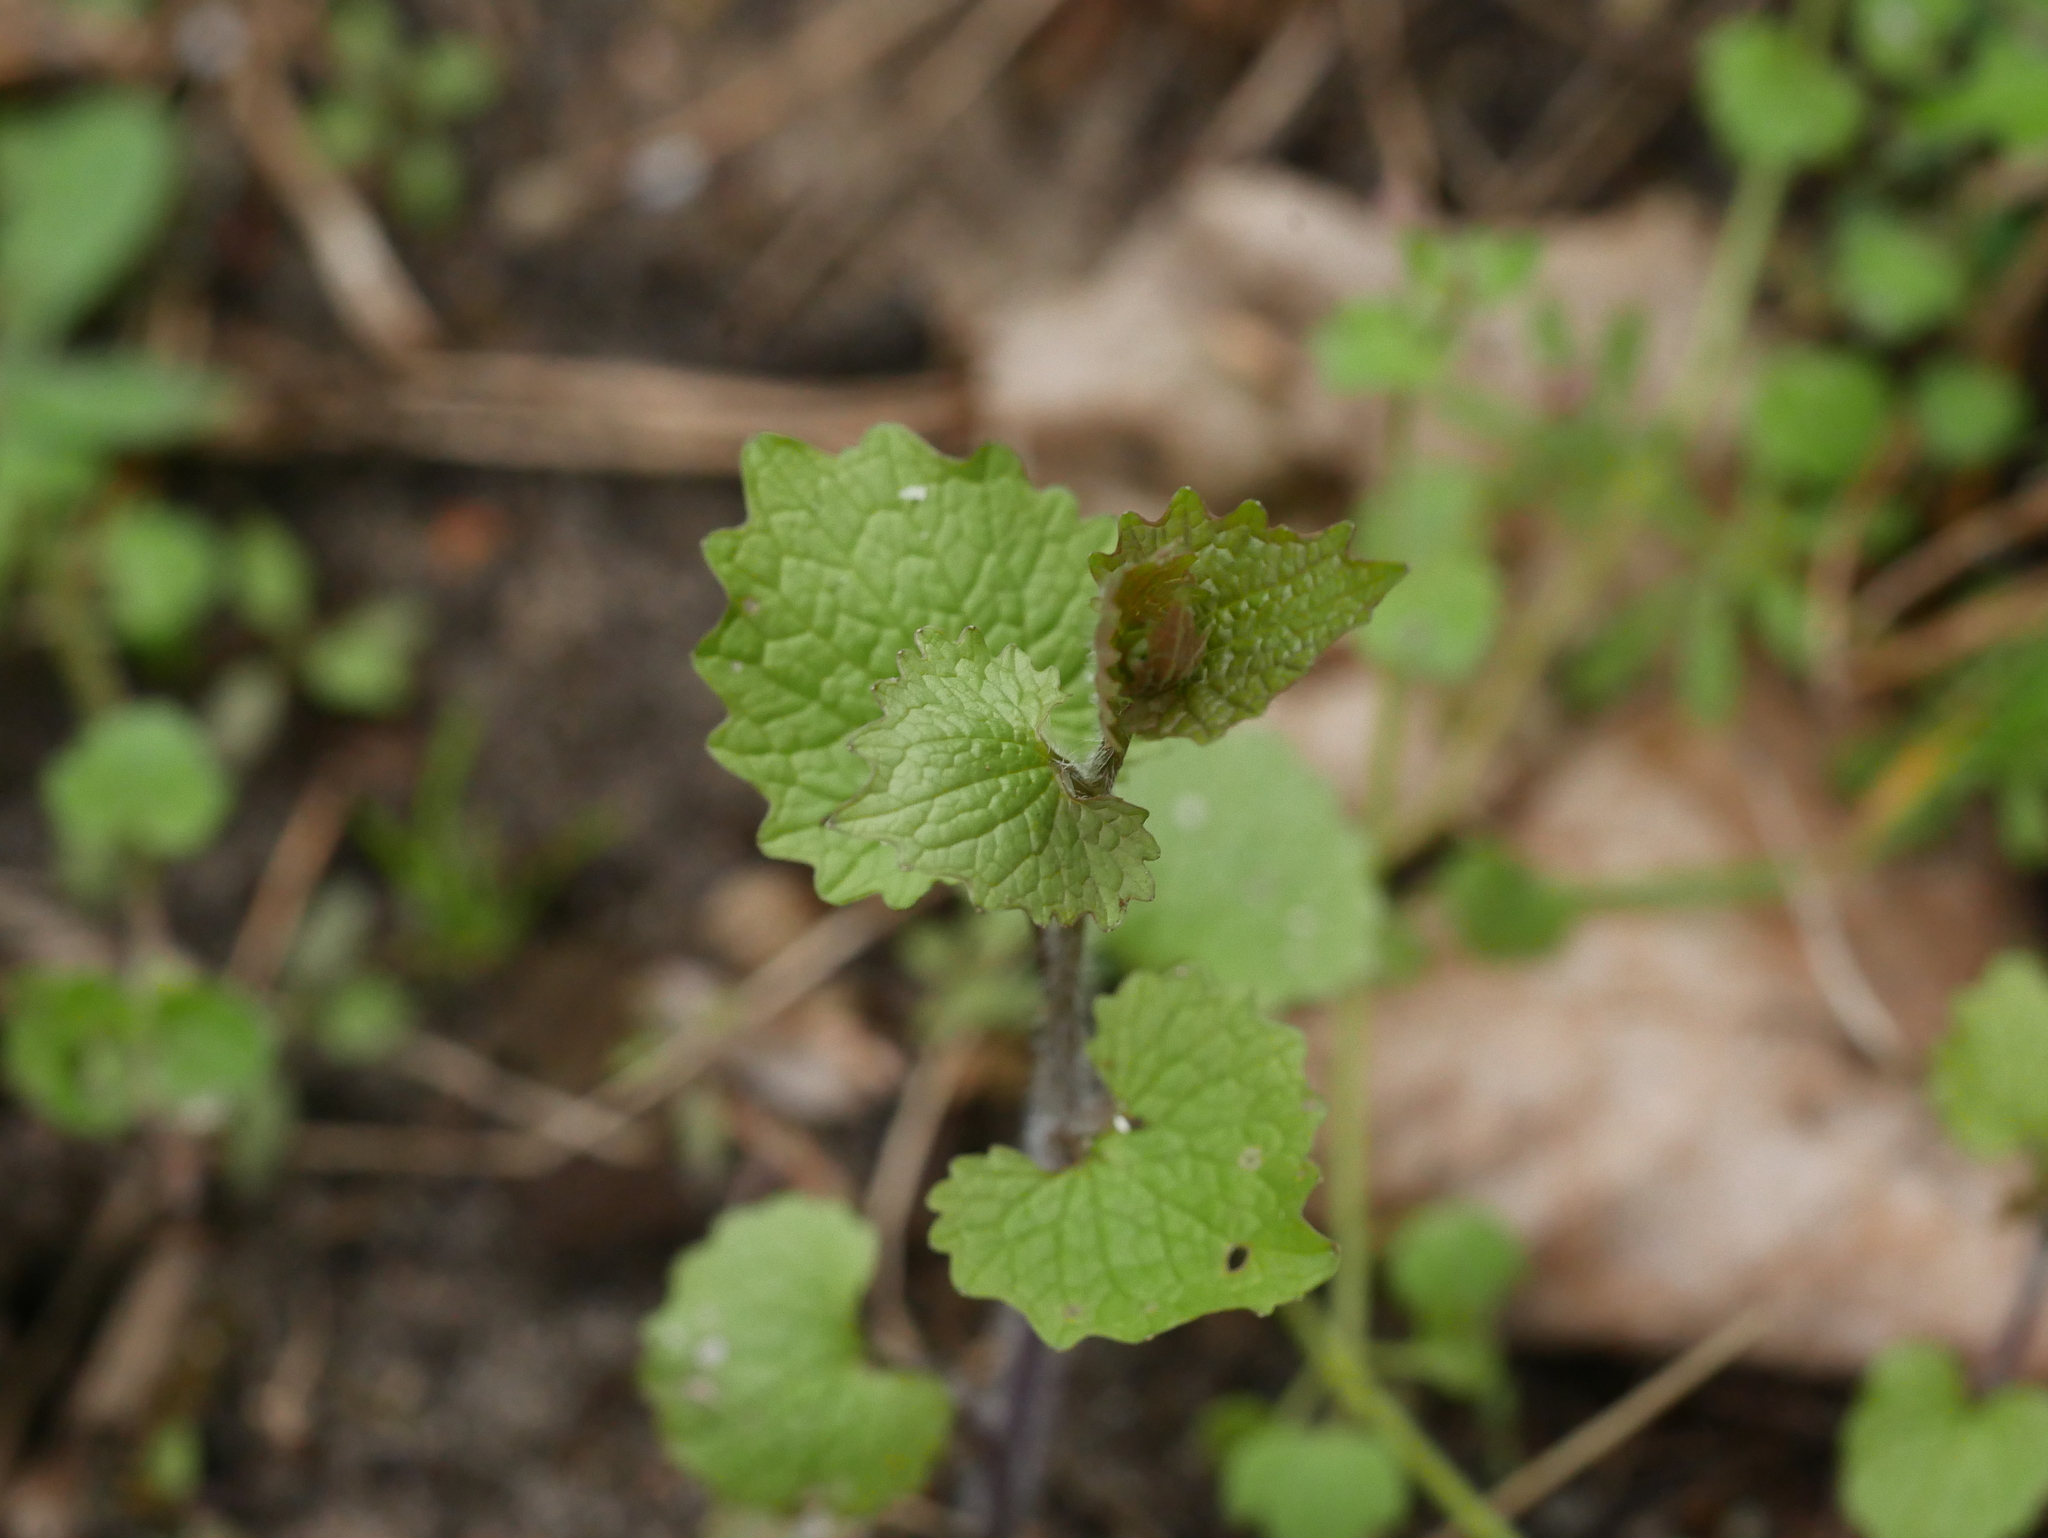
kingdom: Plantae
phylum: Tracheophyta
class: Magnoliopsida
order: Brassicales
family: Brassicaceae
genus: Alliaria
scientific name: Alliaria petiolata
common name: Garlic mustard
